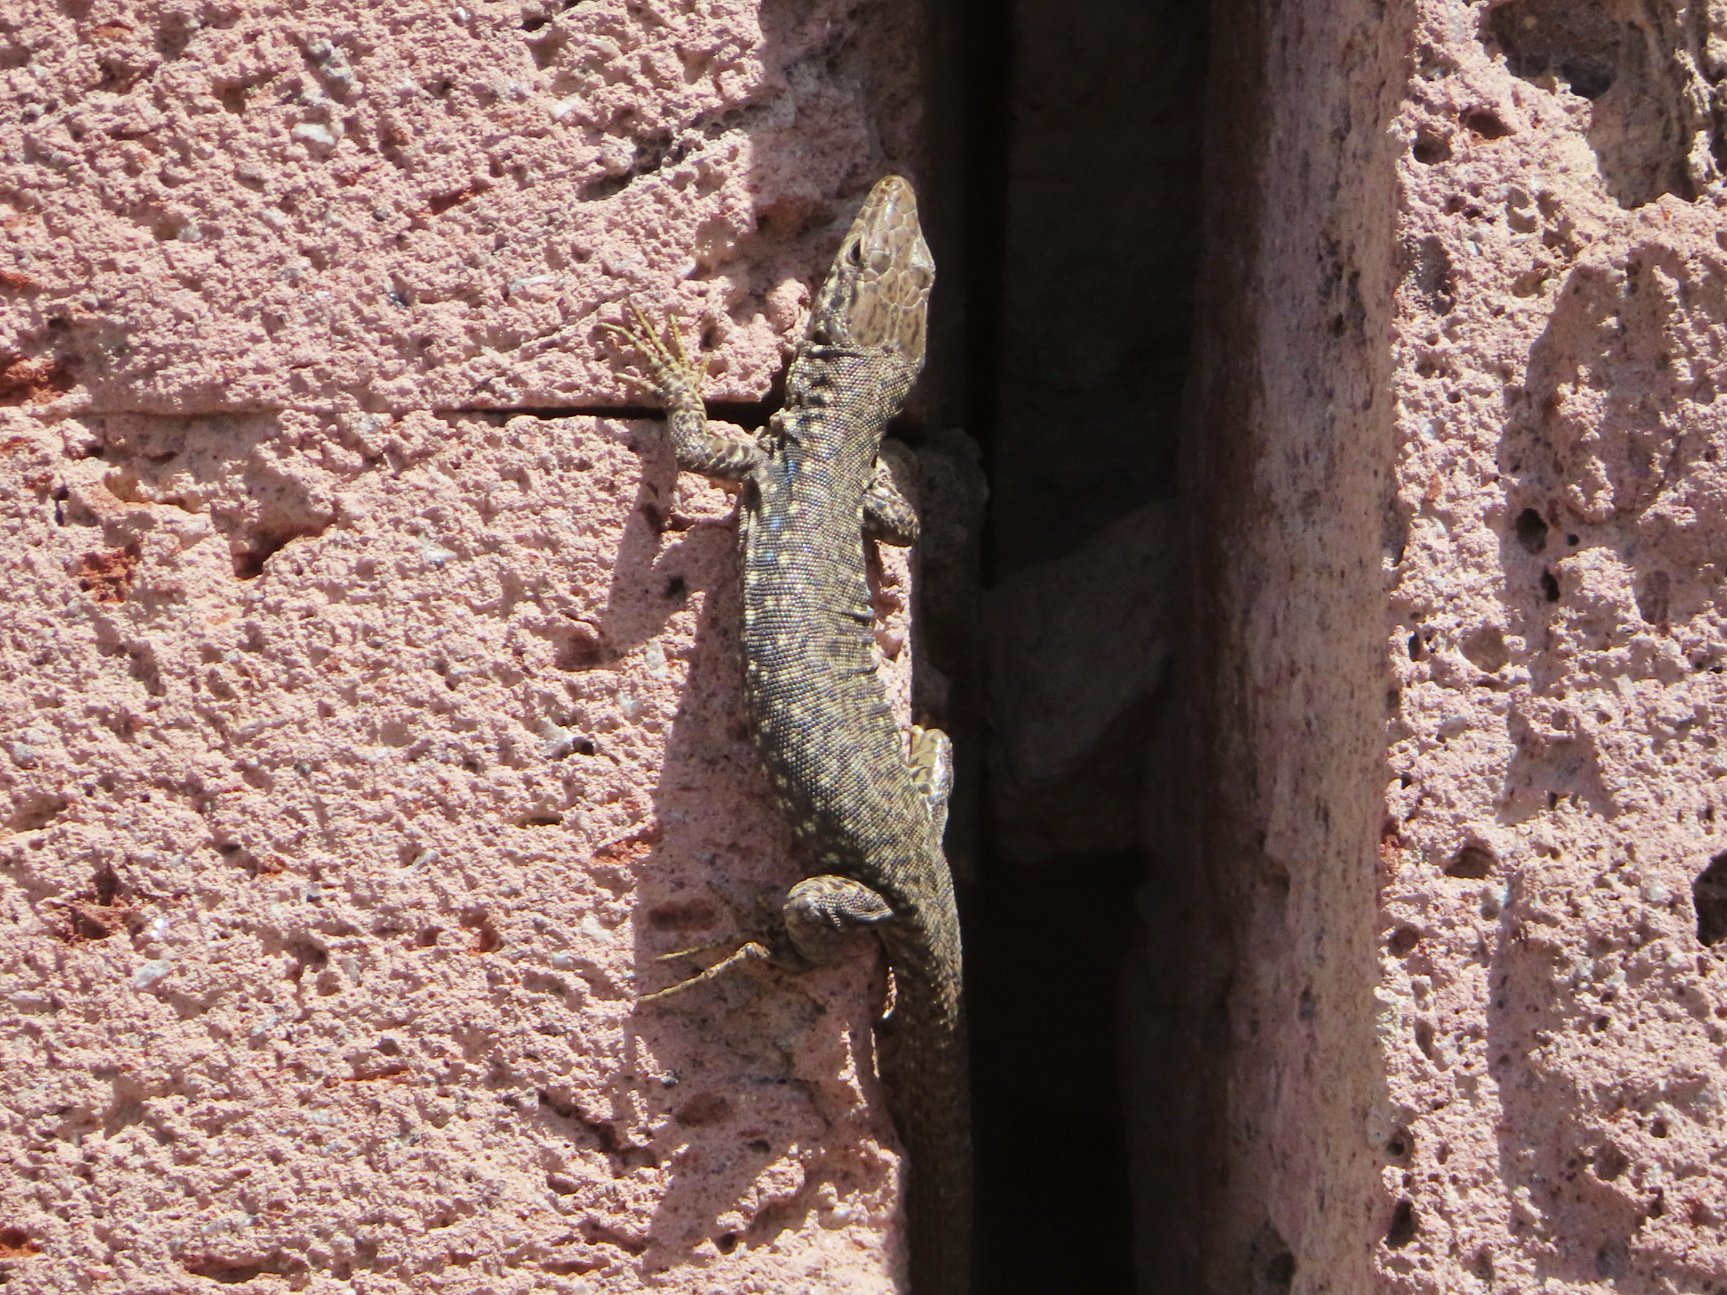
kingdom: Animalia
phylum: Chordata
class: Squamata
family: Lacertidae
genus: Darevskia
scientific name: Darevskia
